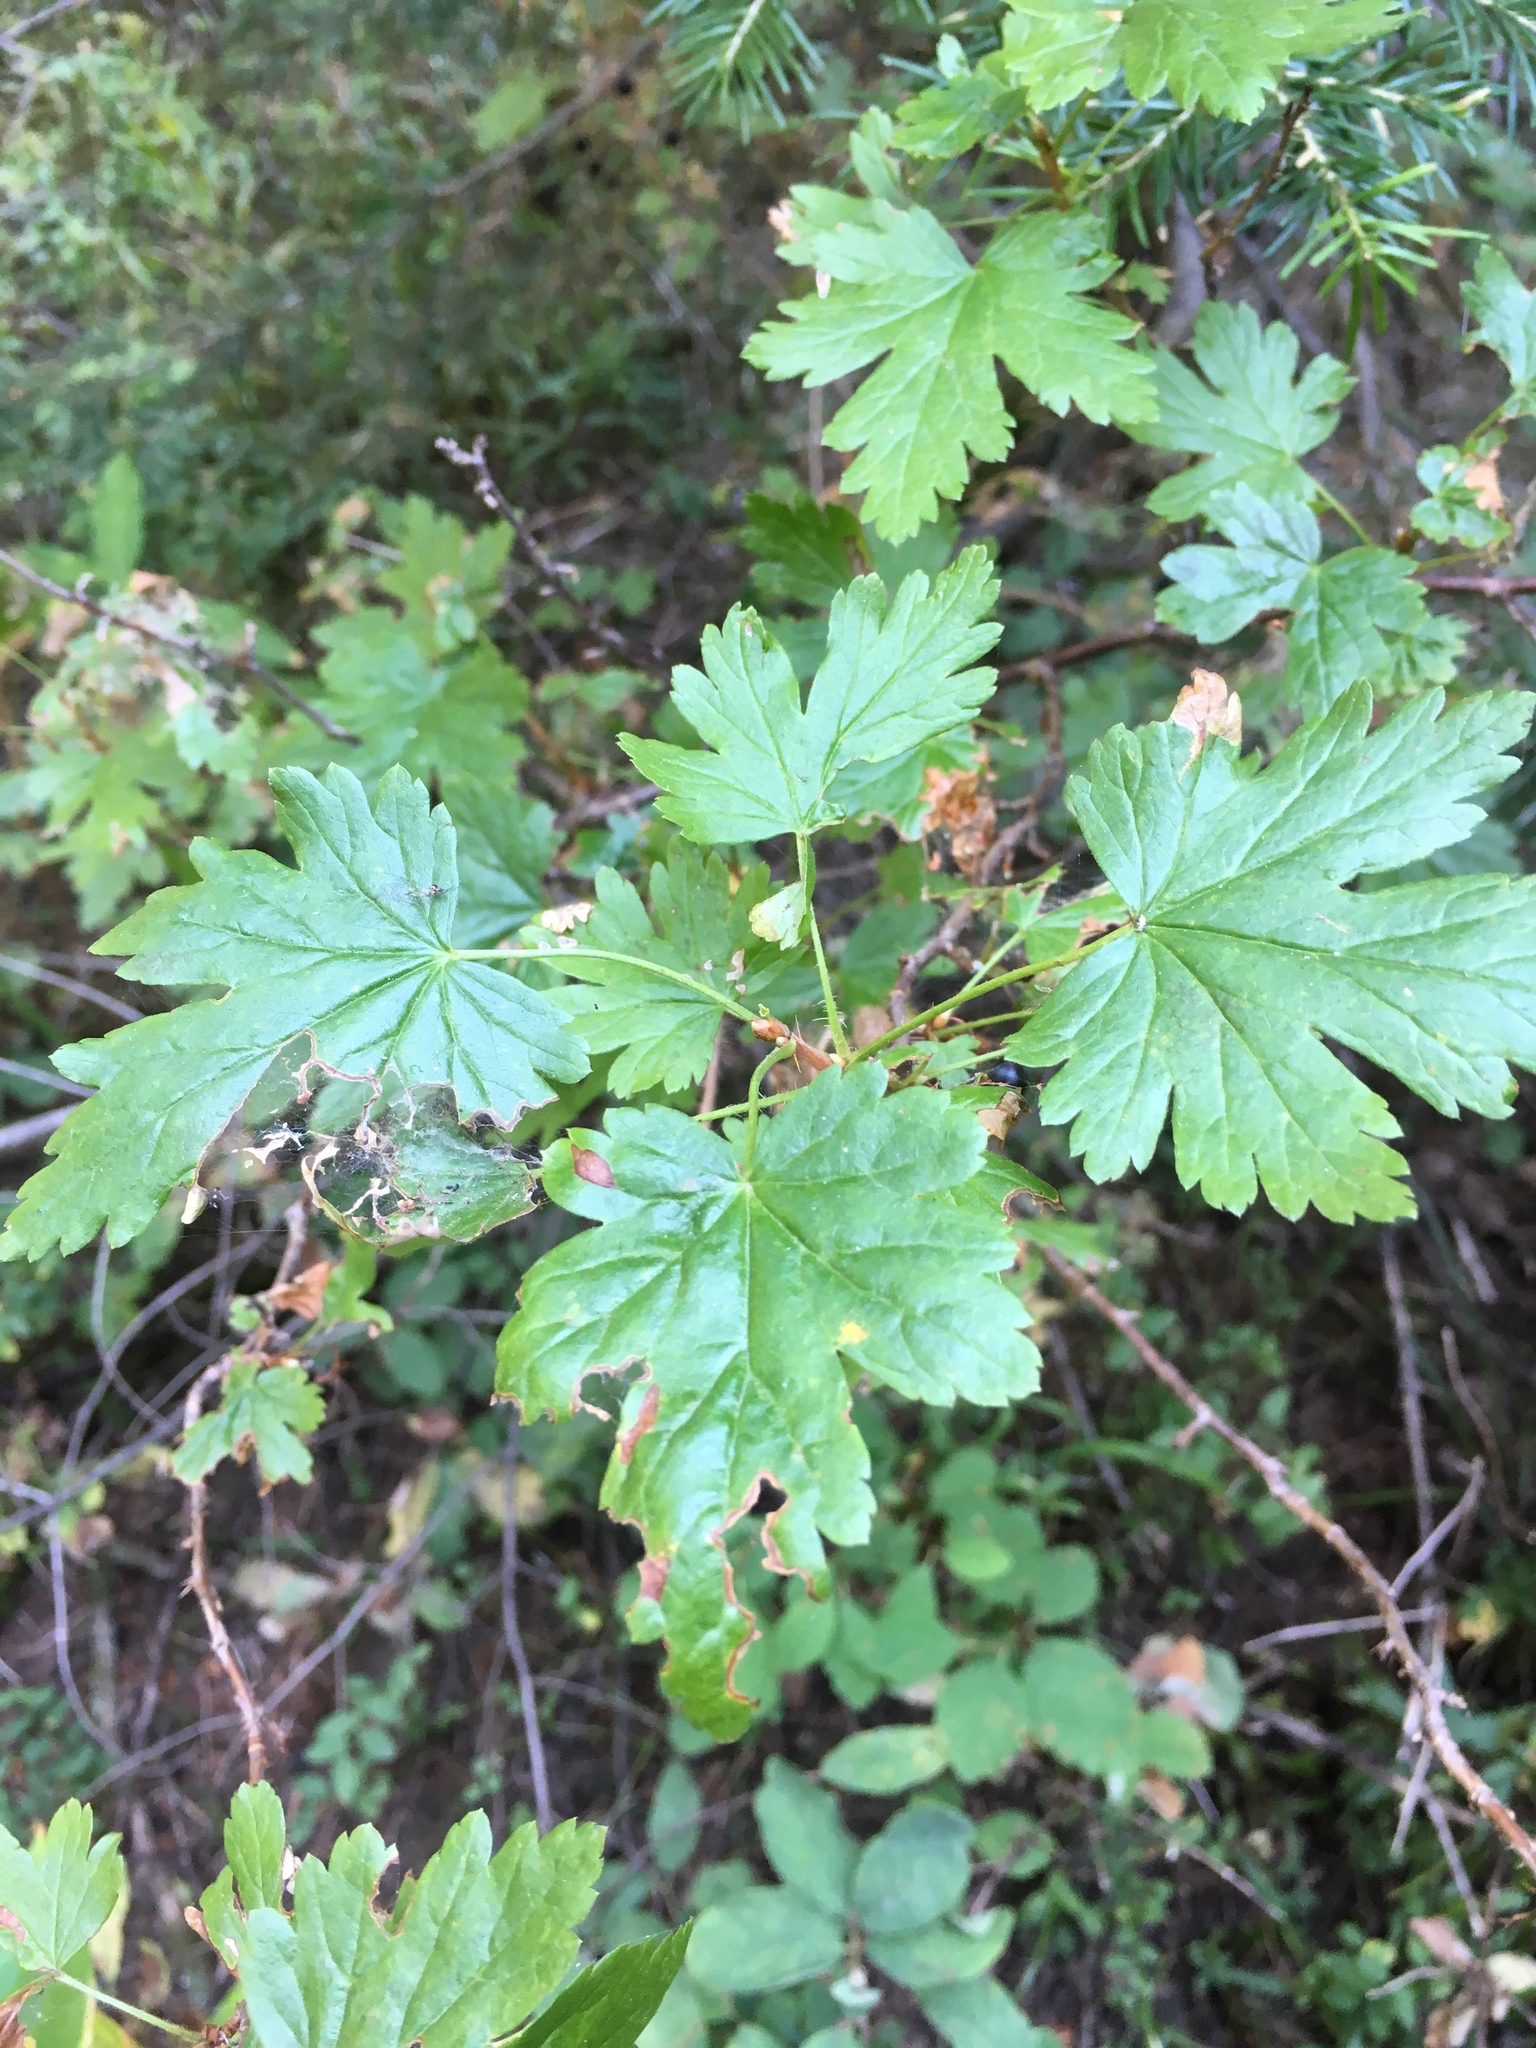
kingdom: Plantae
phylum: Tracheophyta
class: Magnoliopsida
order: Saxifragales
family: Grossulariaceae
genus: Ribes
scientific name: Ribes lacustre
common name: Black gooseberry
